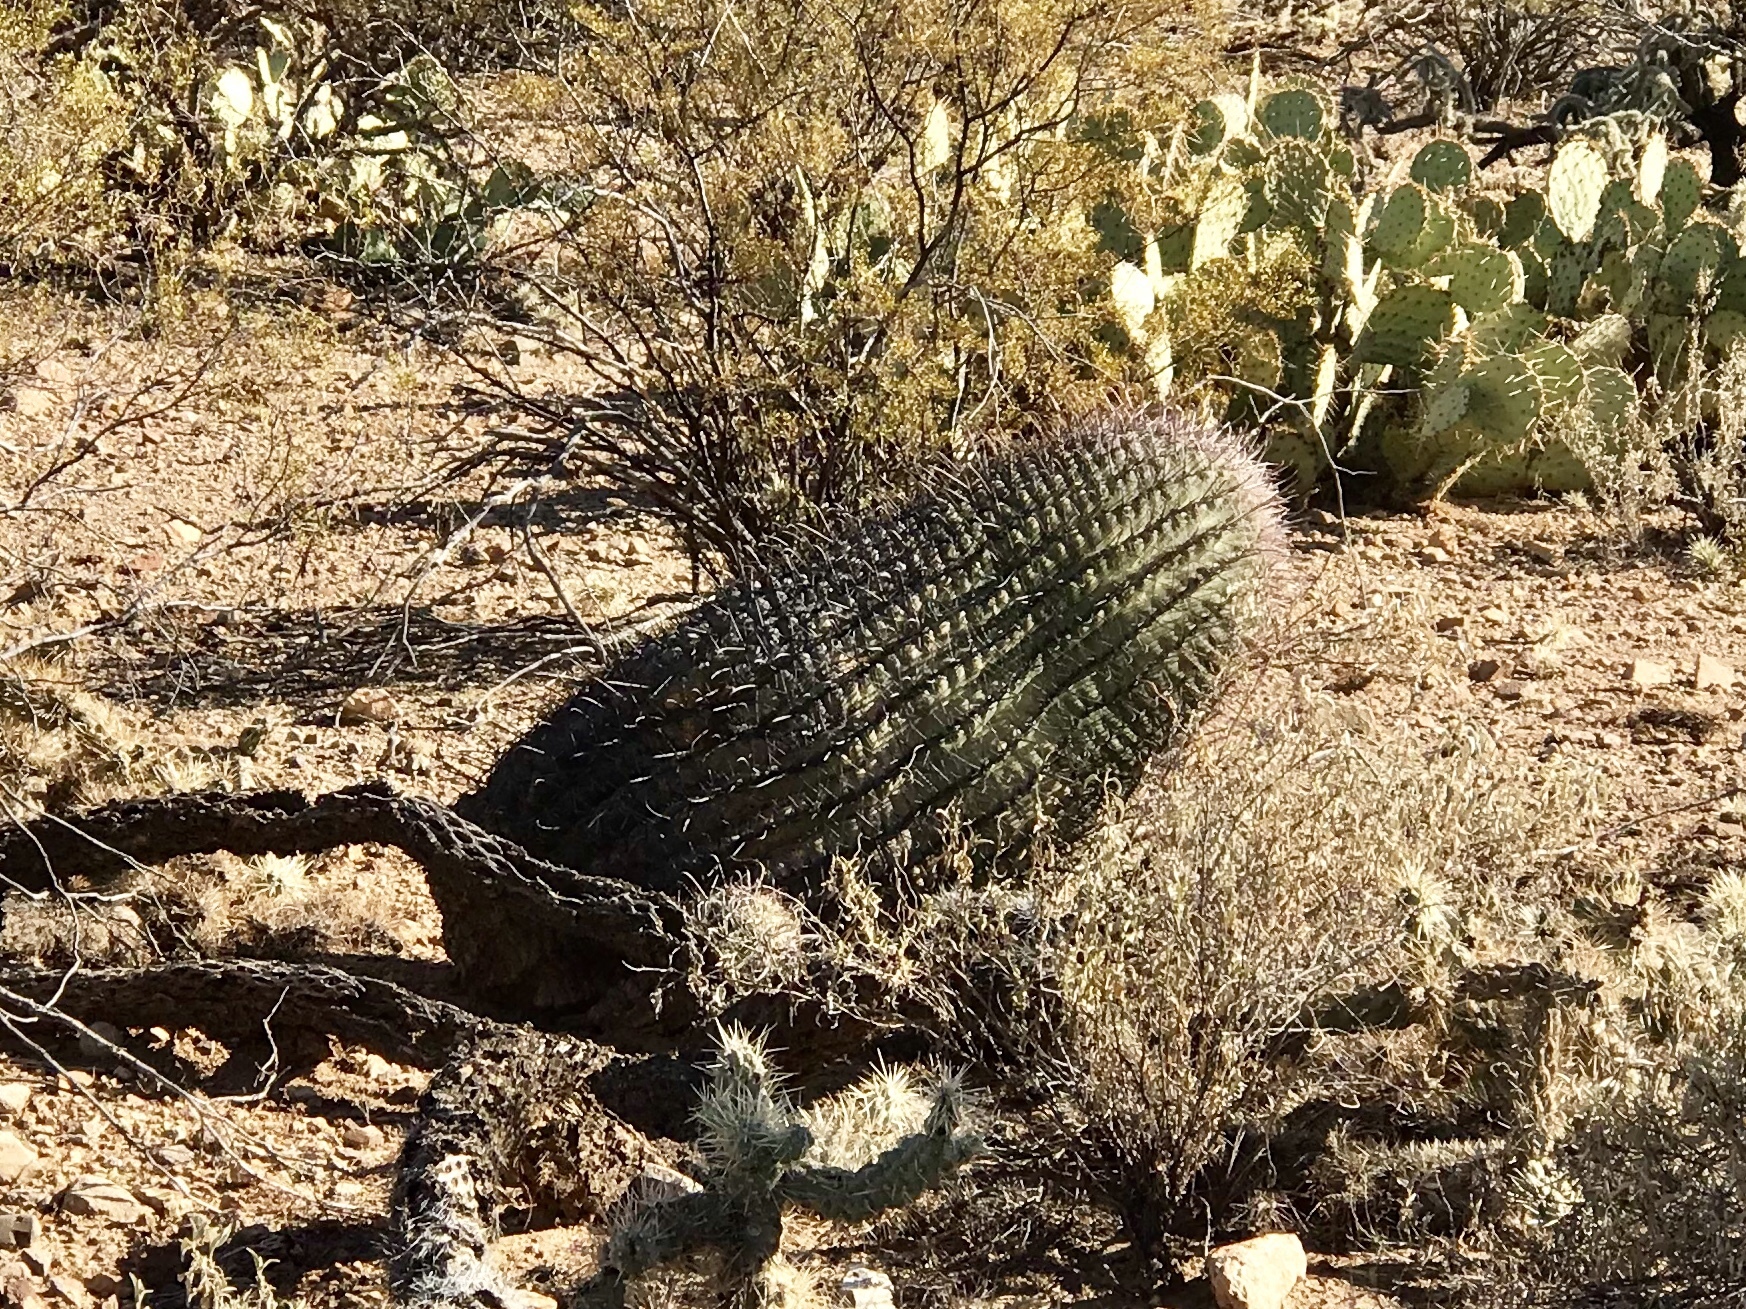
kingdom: Plantae
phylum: Tracheophyta
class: Magnoliopsida
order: Caryophyllales
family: Cactaceae
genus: Ferocactus
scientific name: Ferocactus wislizeni
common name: Candy barrel cactus
